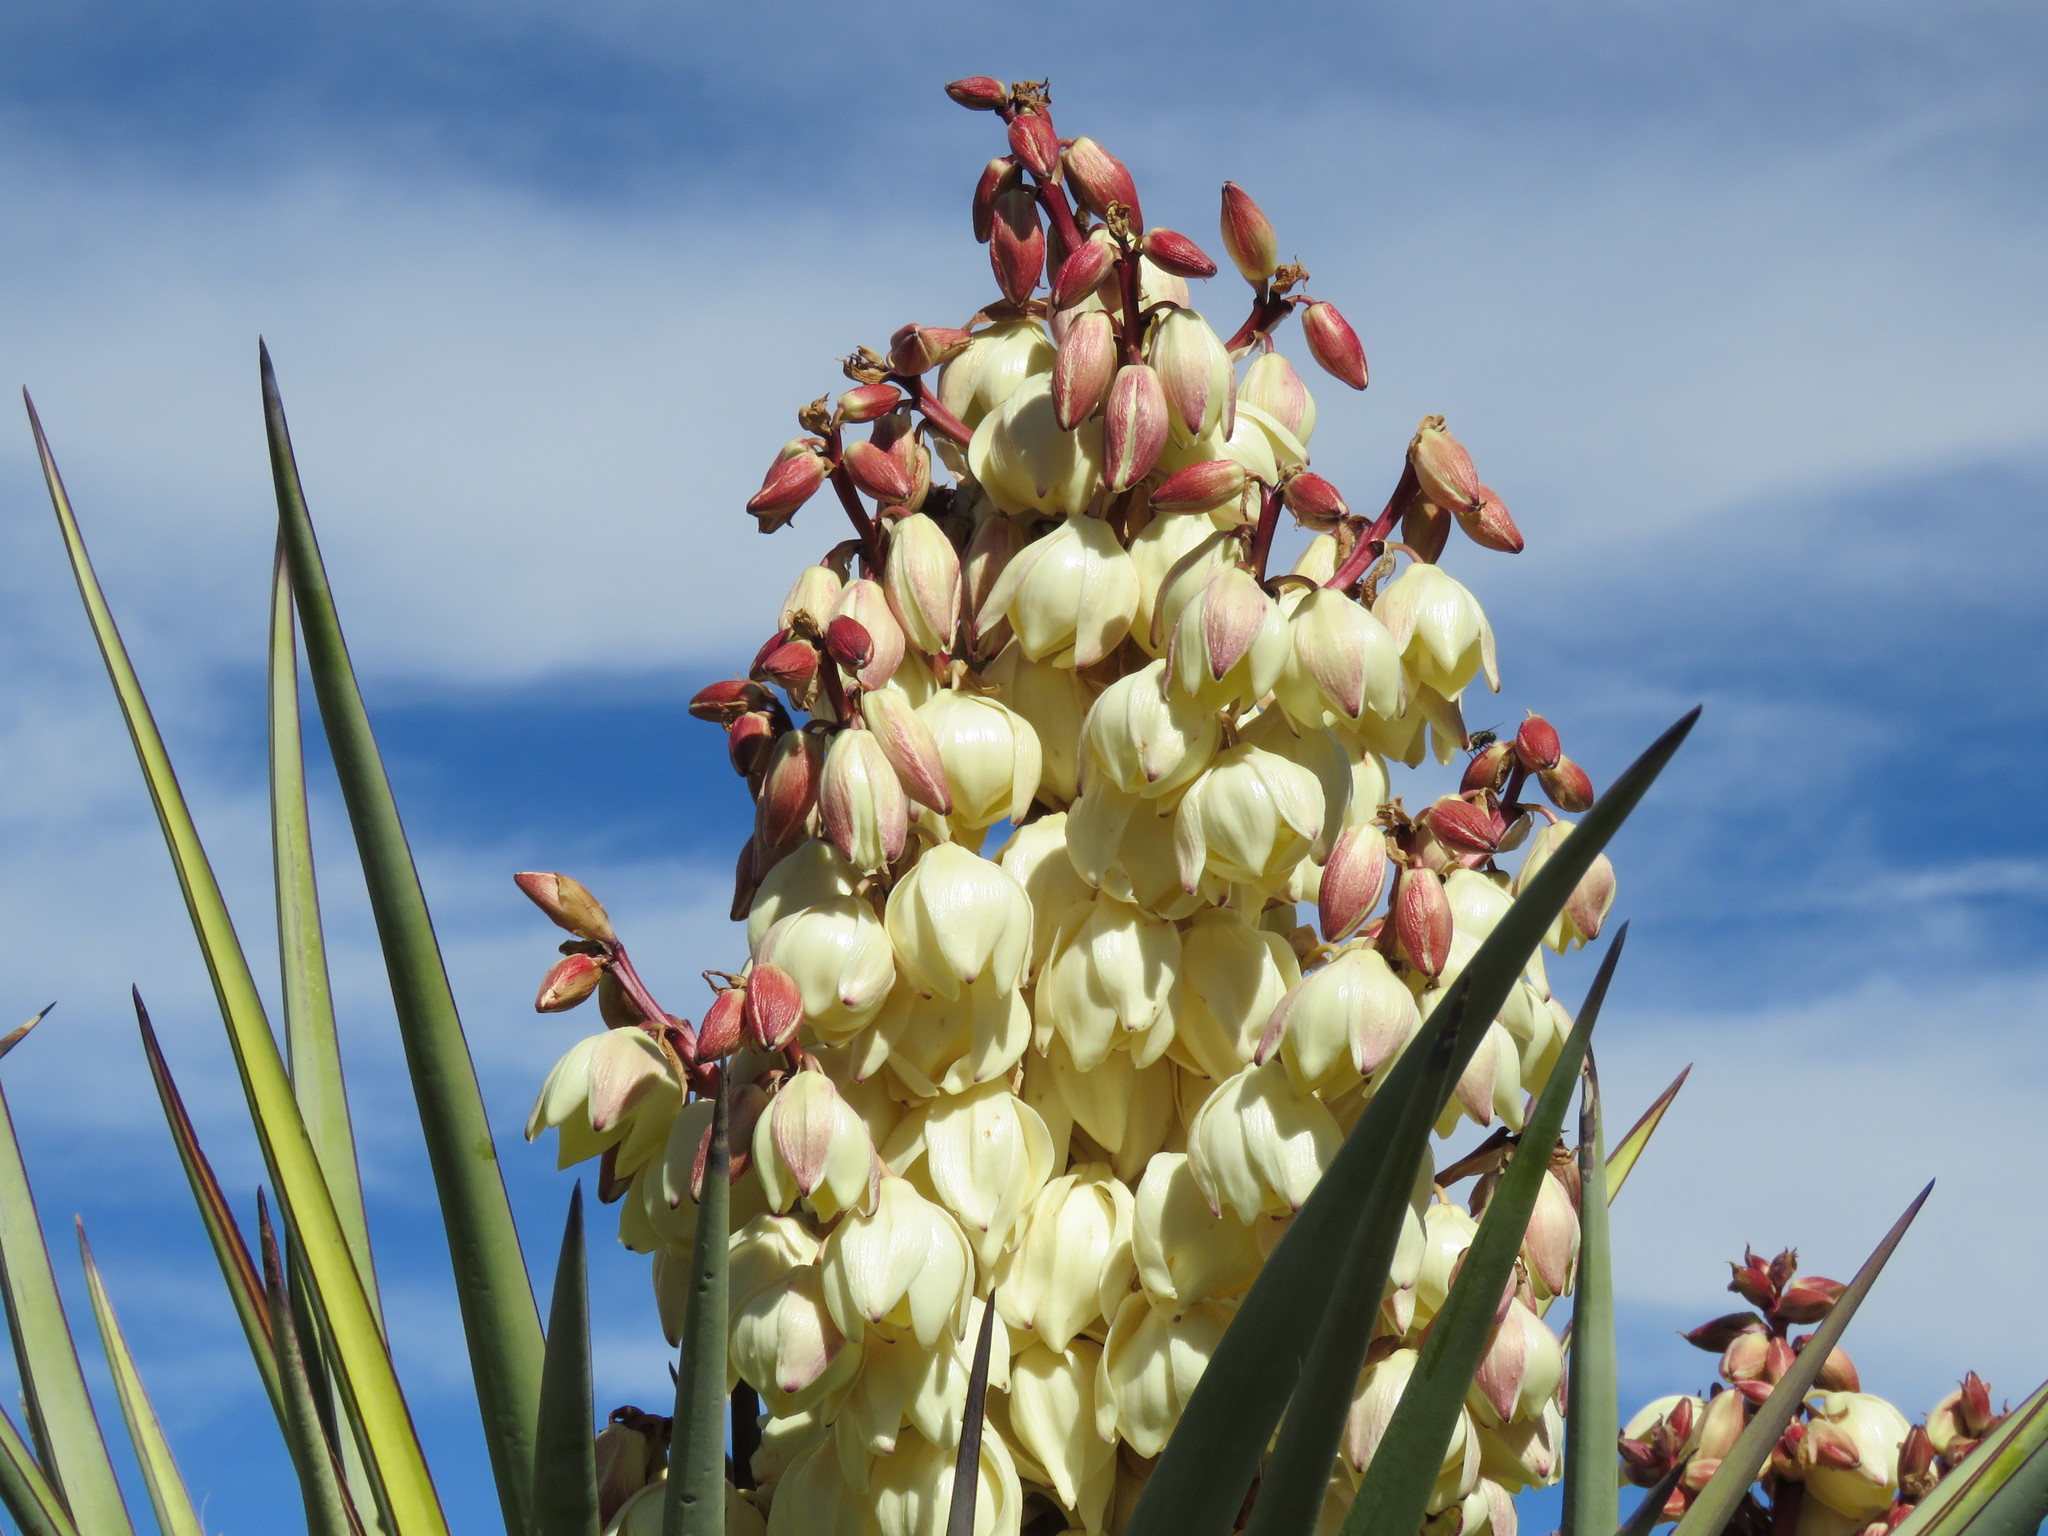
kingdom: Plantae
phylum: Tracheophyta
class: Liliopsida
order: Asparagales
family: Asparagaceae
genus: Yucca
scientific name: Yucca treculiana
